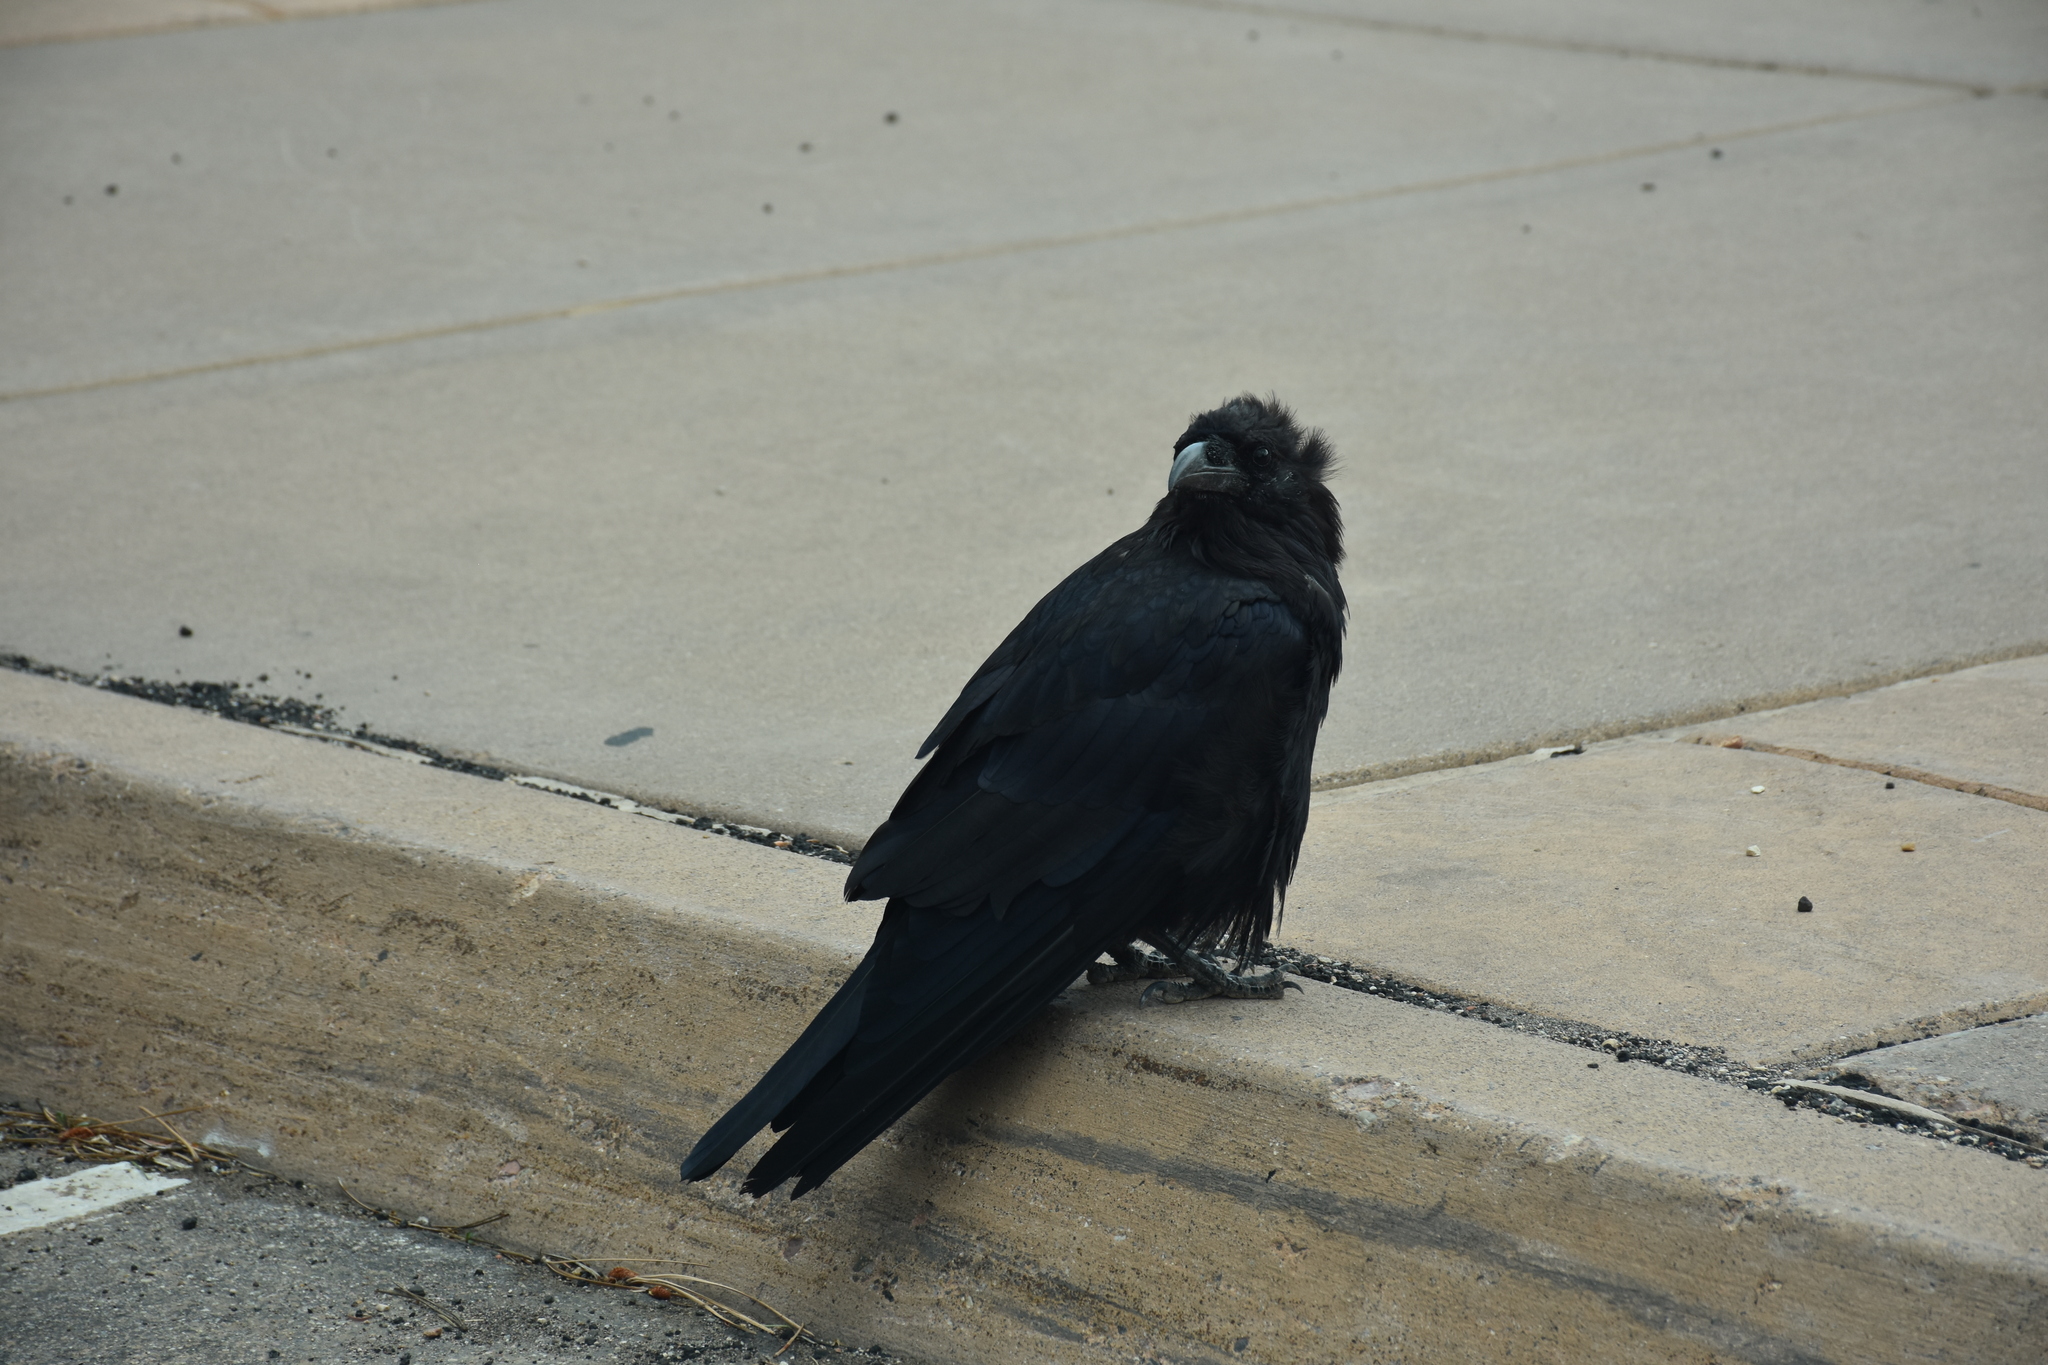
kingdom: Animalia
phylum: Chordata
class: Aves
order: Passeriformes
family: Corvidae
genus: Corvus
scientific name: Corvus corax
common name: Common raven
